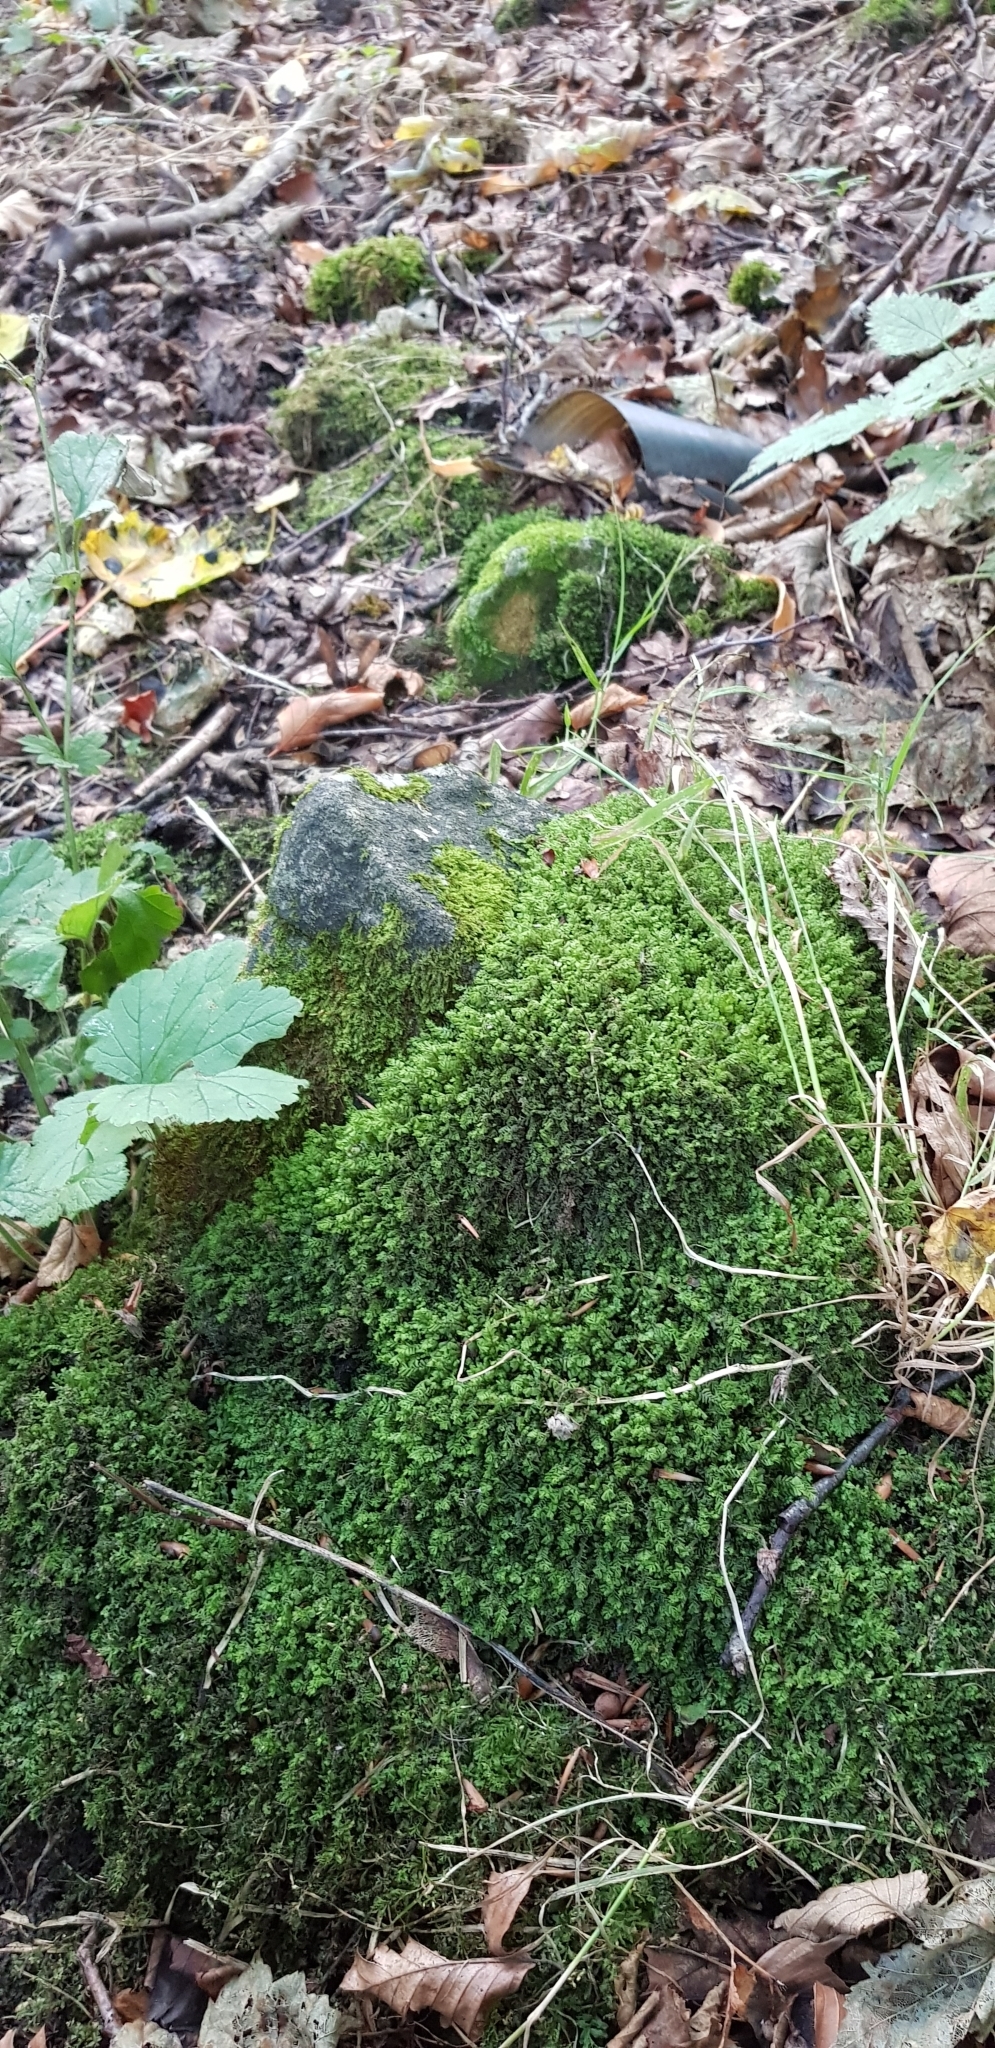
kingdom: Plantae
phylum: Marchantiophyta
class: Jungermanniopsida
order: Jungermanniales
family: Plagiochilaceae
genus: Plagiochila
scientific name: Plagiochila porelloides
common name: Lesser featherwort
